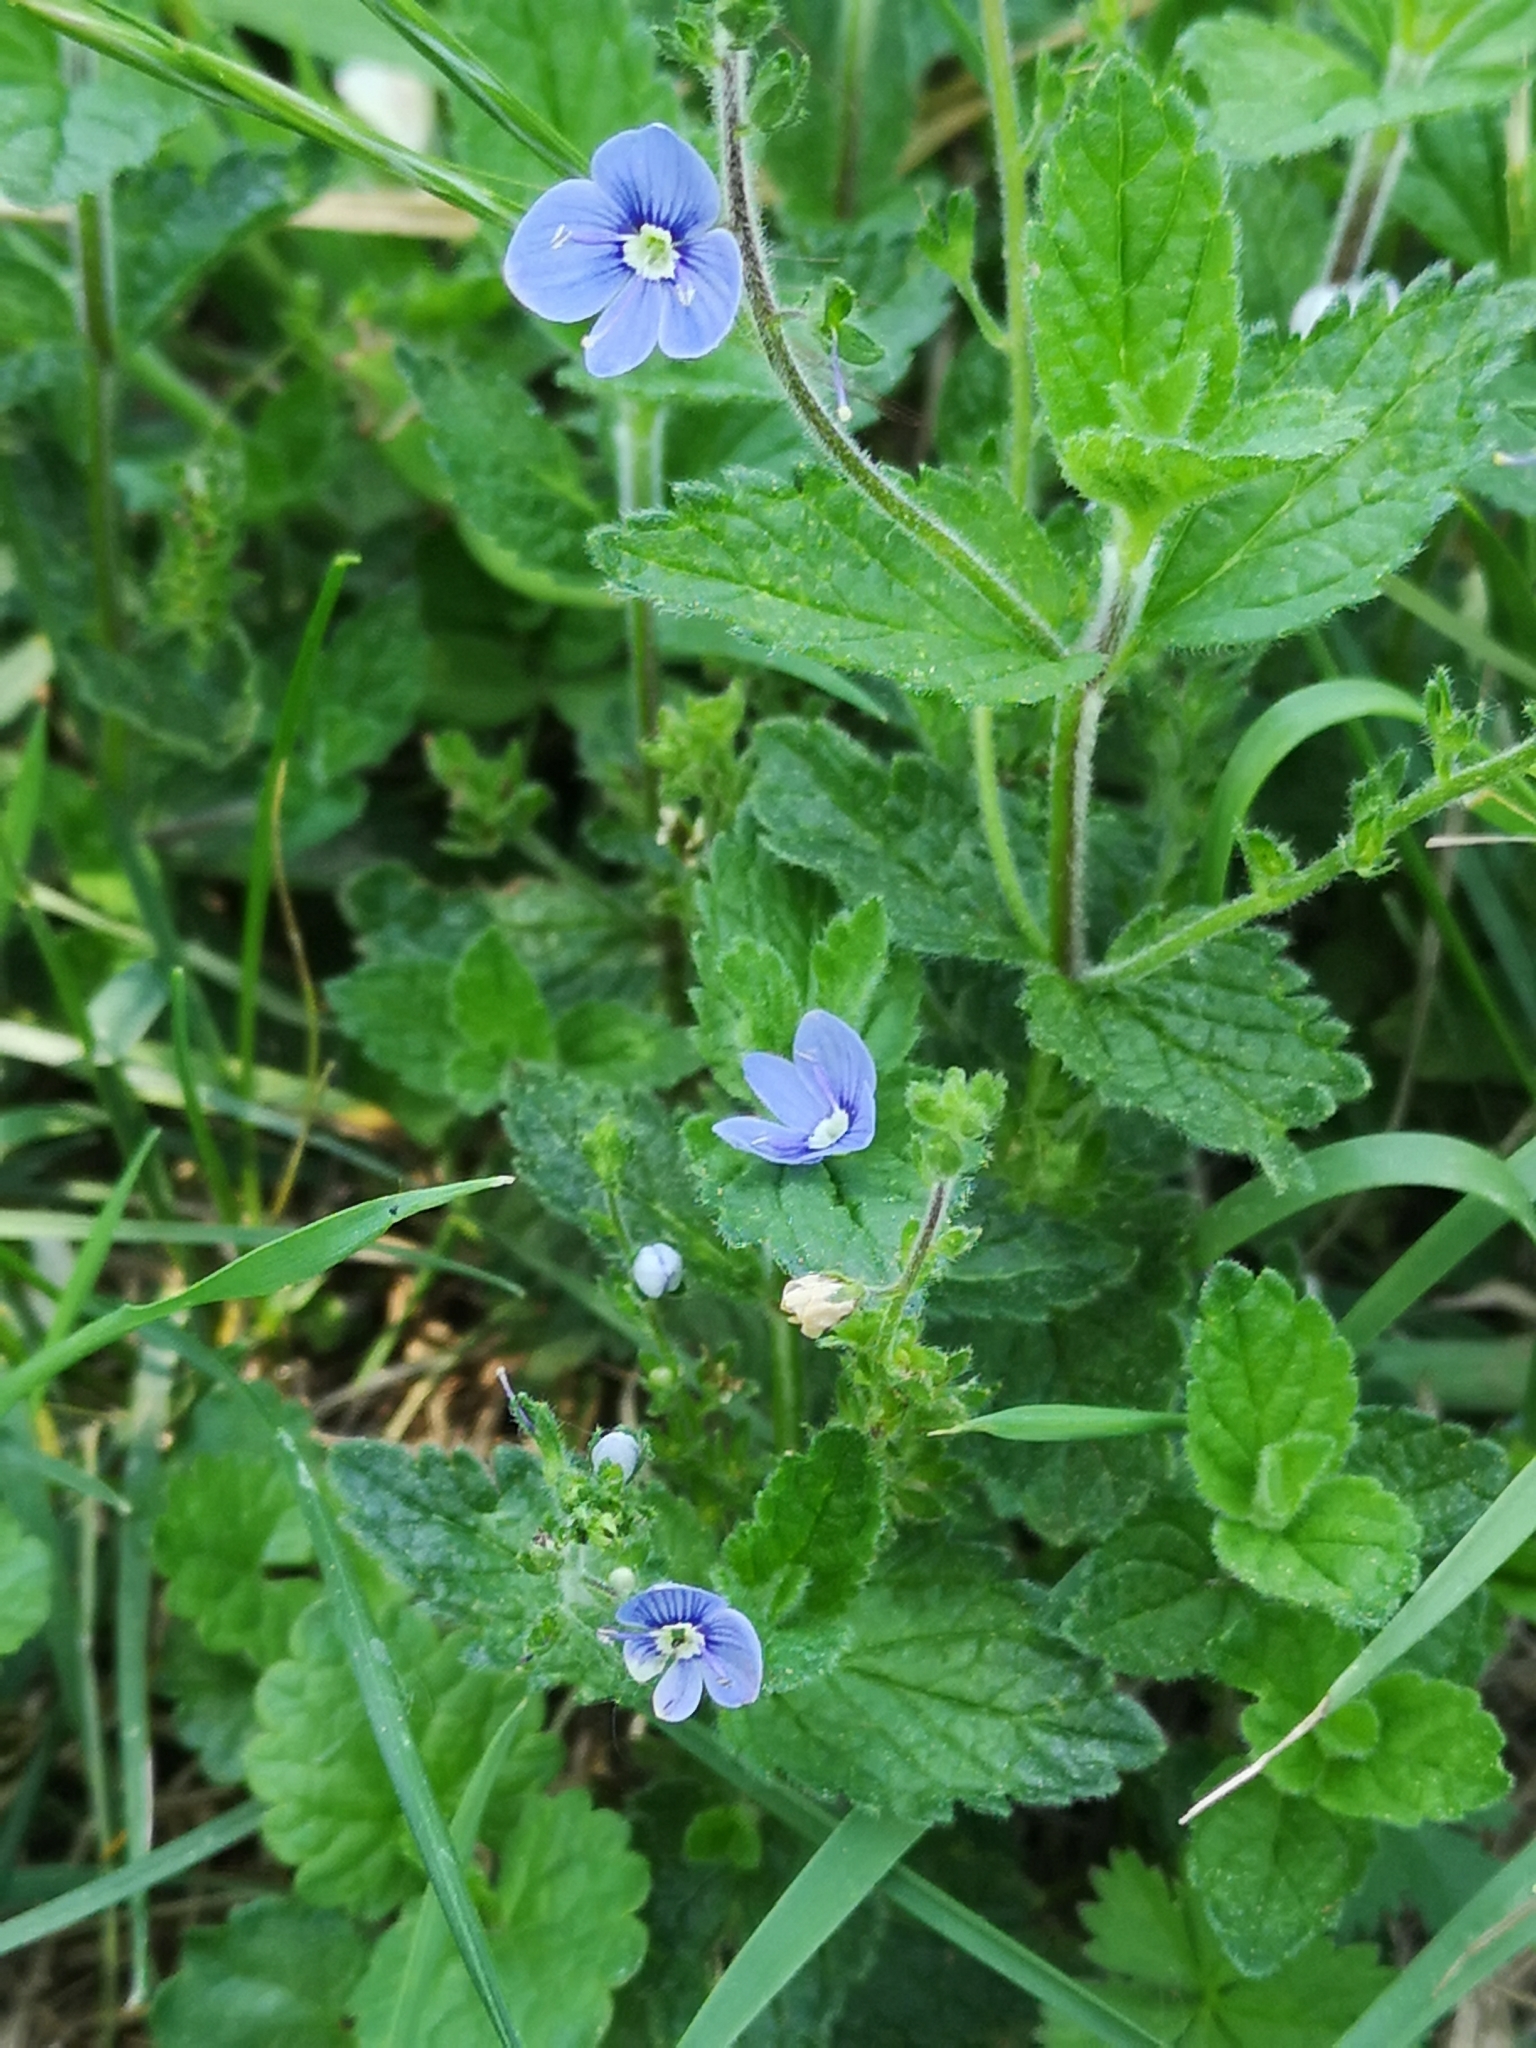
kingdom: Plantae
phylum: Tracheophyta
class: Magnoliopsida
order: Lamiales
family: Plantaginaceae
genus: Veronica
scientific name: Veronica chamaedrys
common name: Germander speedwell
